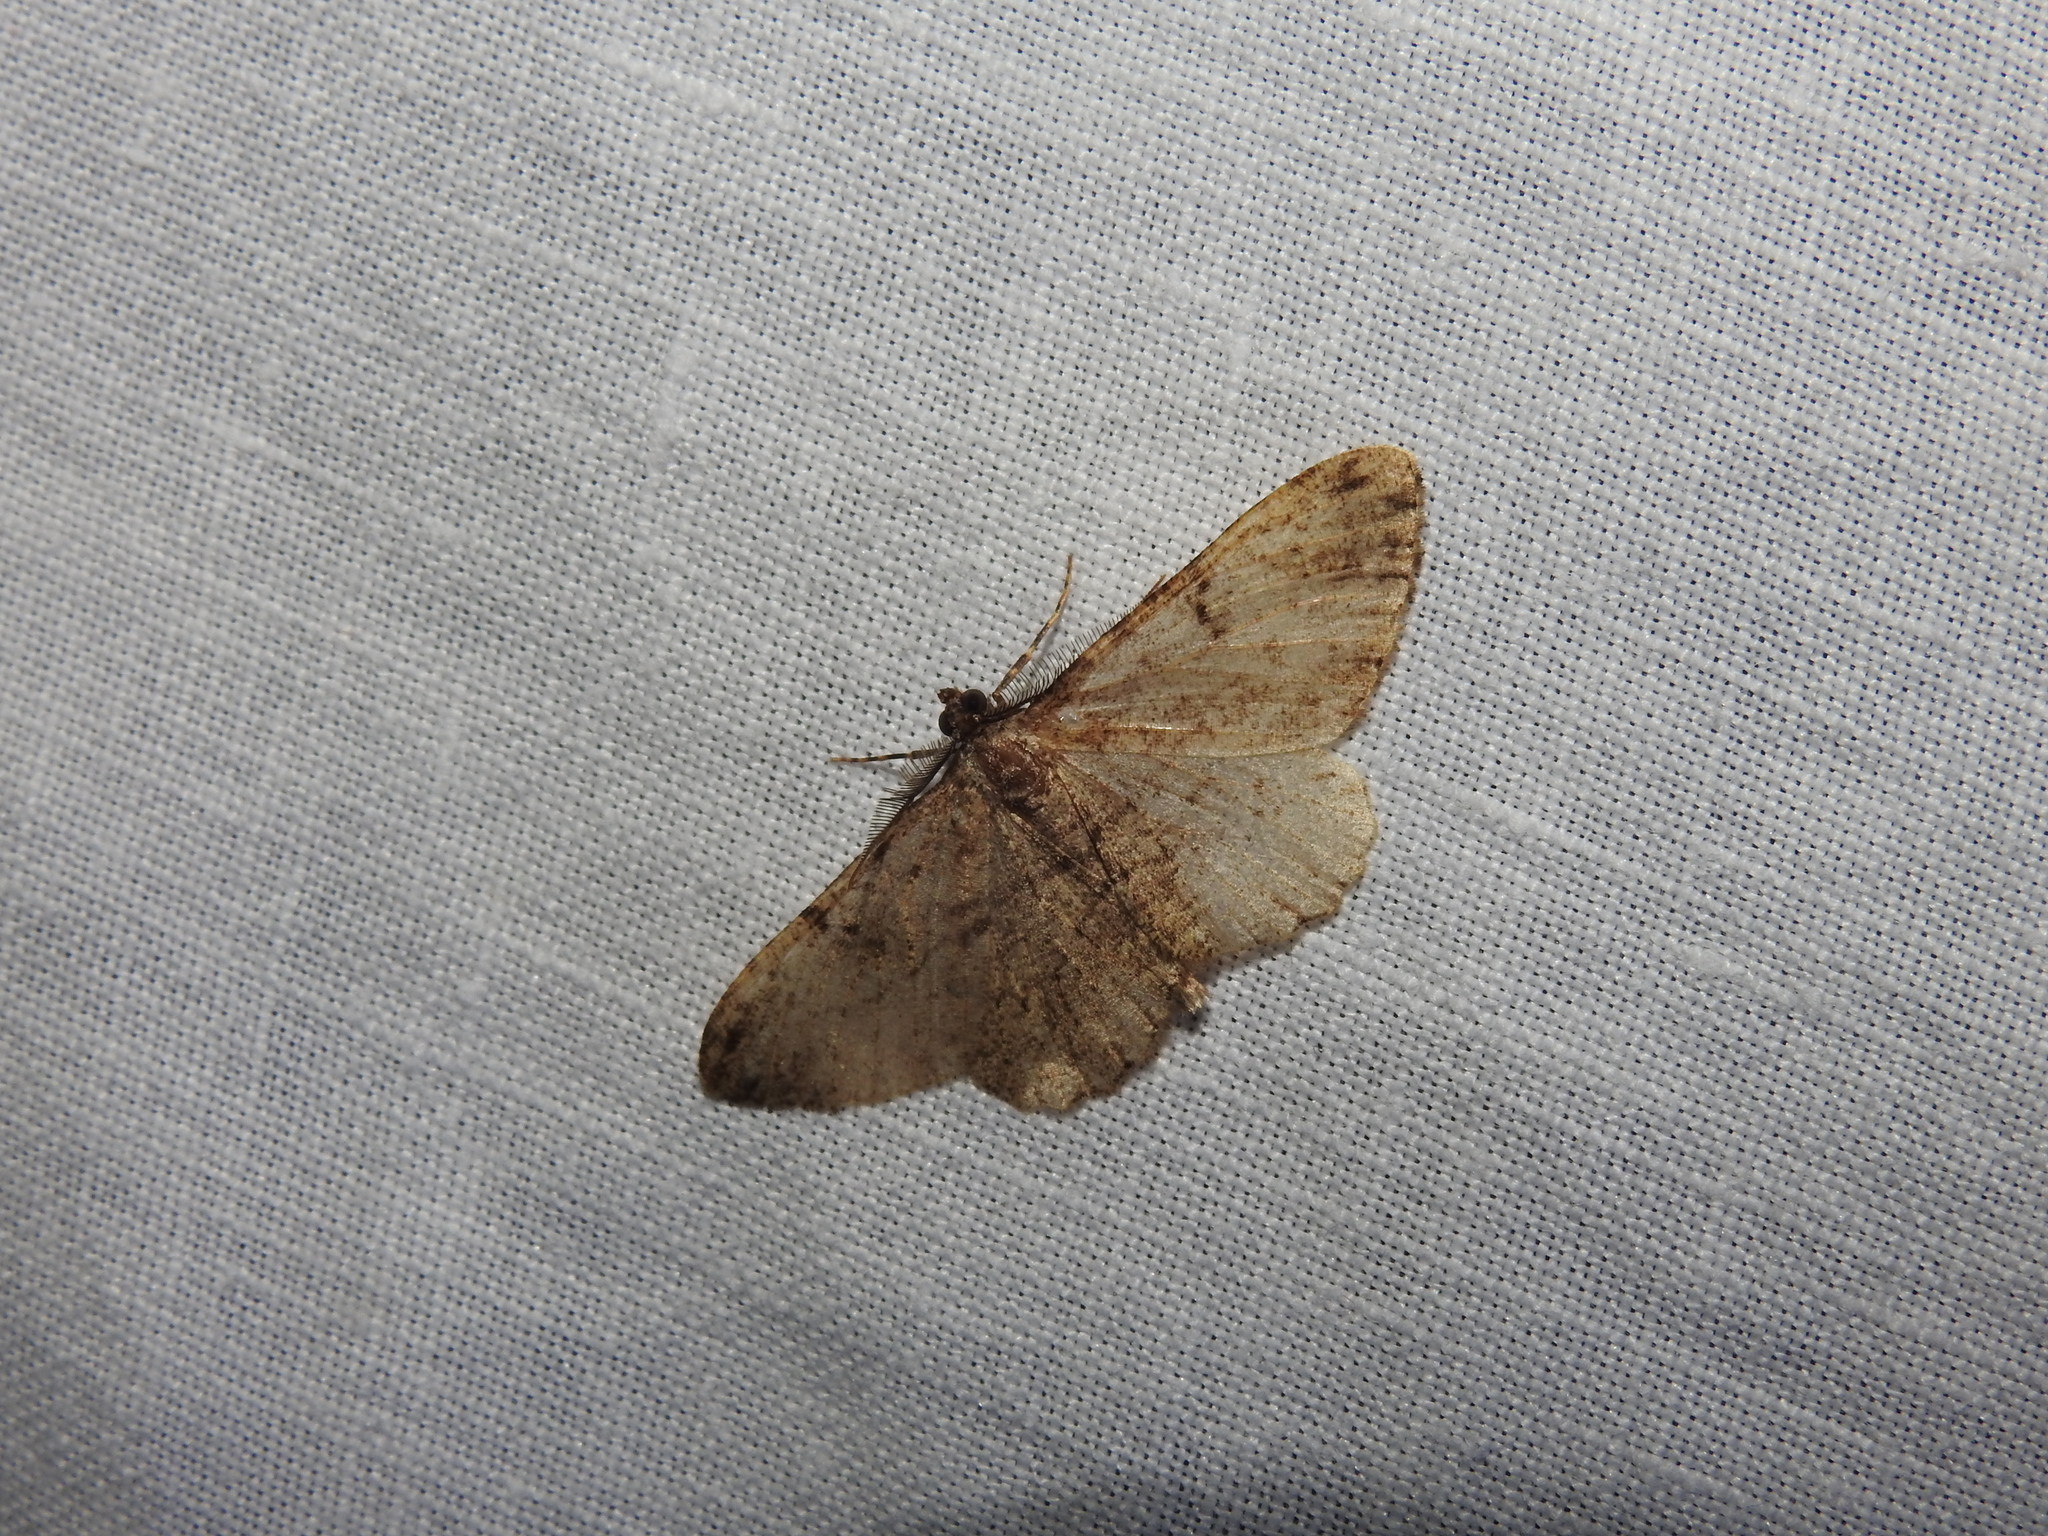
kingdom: Animalia
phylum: Arthropoda
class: Insecta
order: Lepidoptera
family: Geometridae
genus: Peribatodes
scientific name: Peribatodes rhomboidaria
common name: Willow beauty
